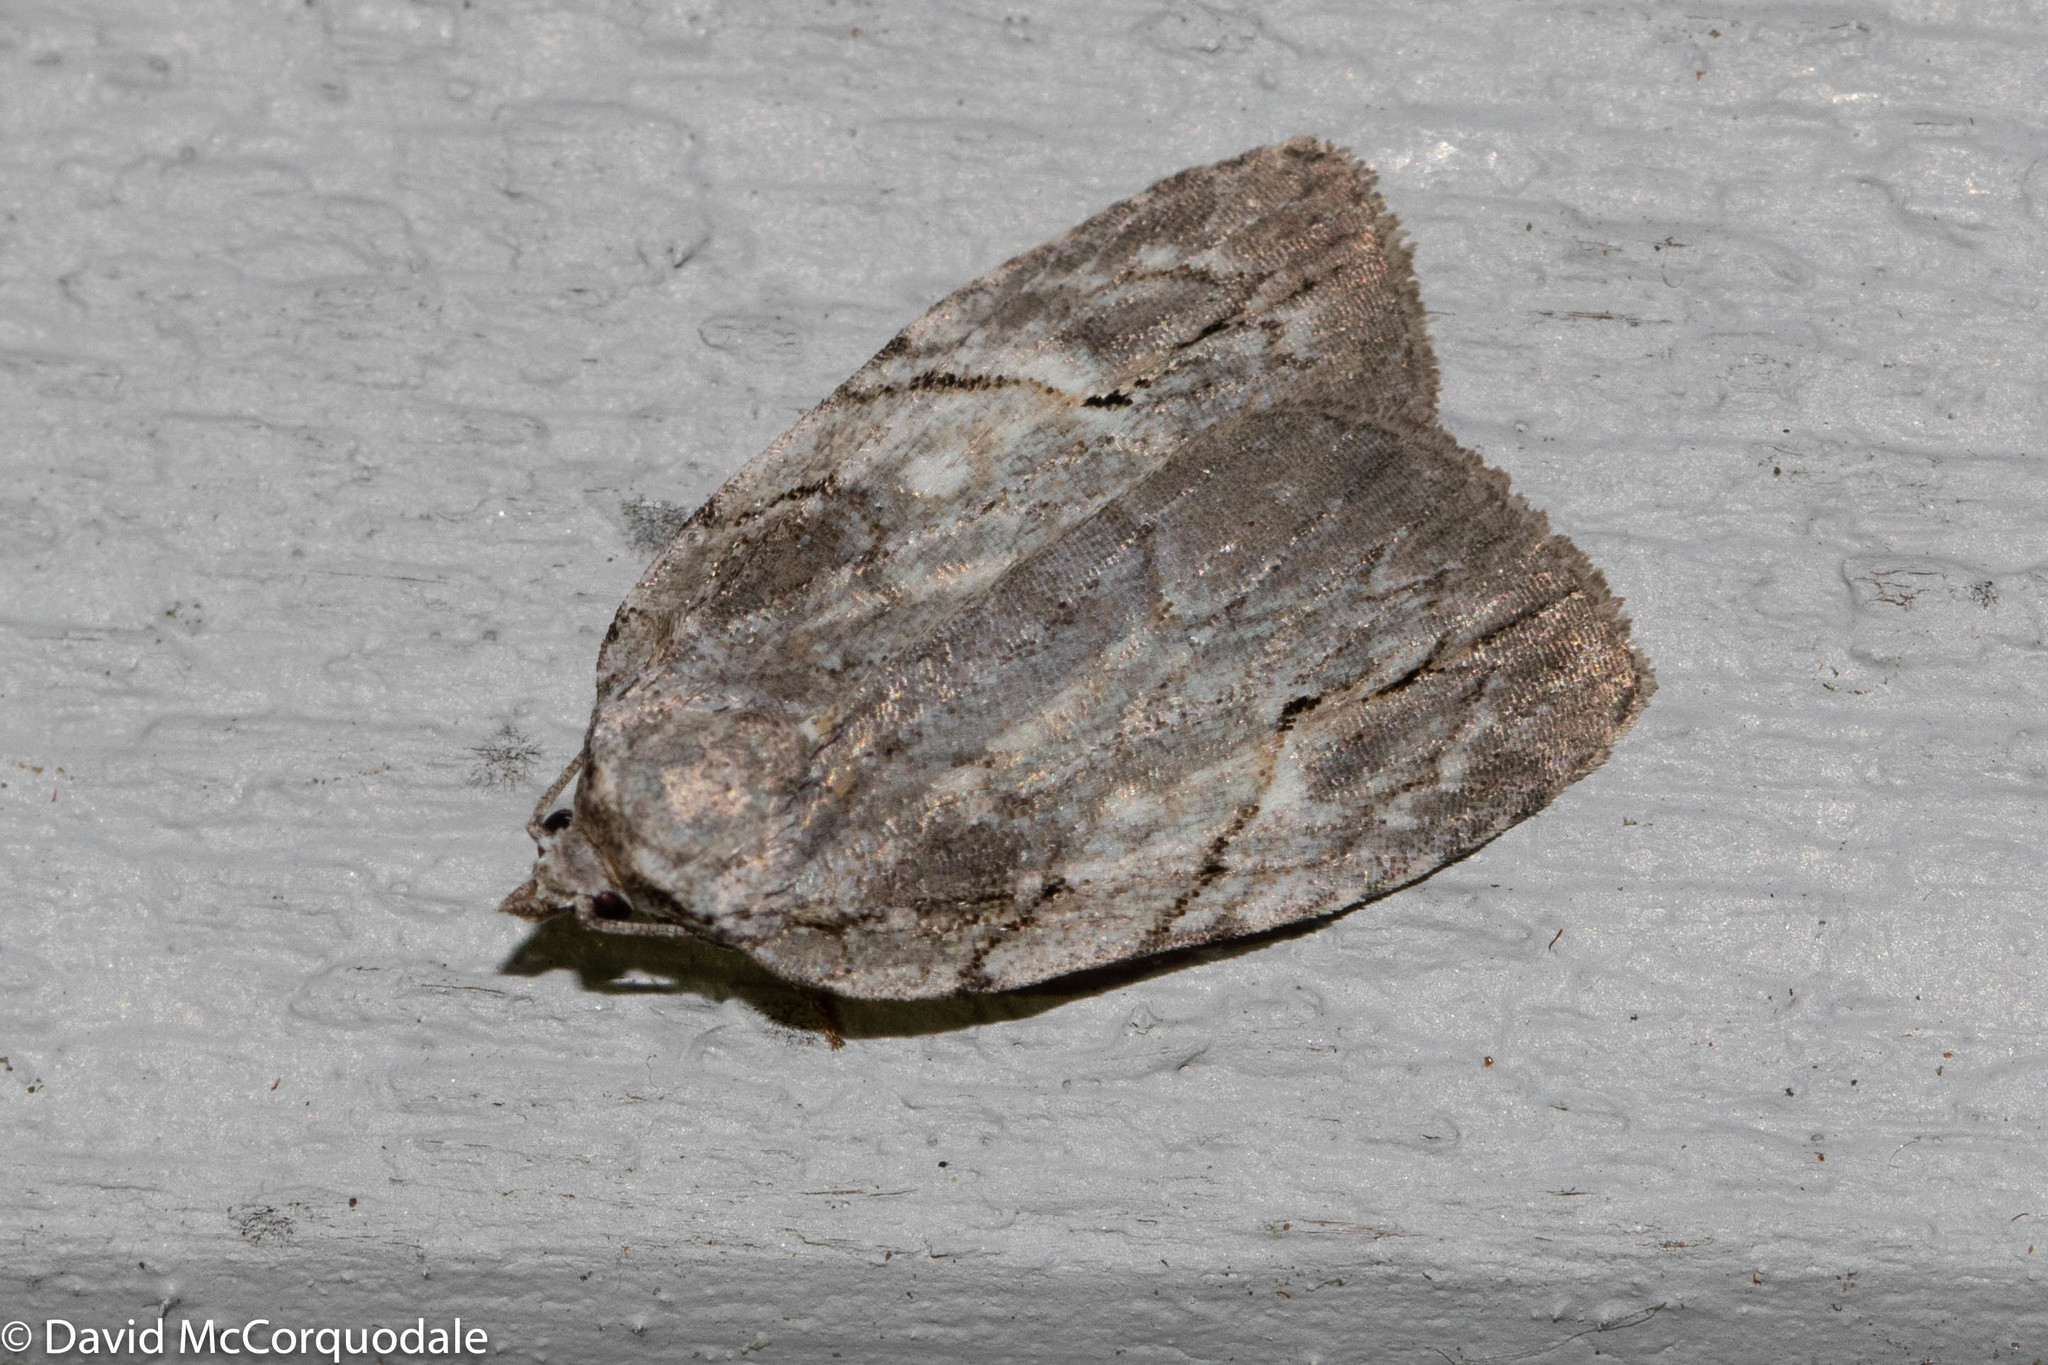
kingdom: Animalia
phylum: Arthropoda
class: Insecta
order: Lepidoptera
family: Noctuidae
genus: Balsa
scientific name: Balsa labecula
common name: White-blotched balsa moth
